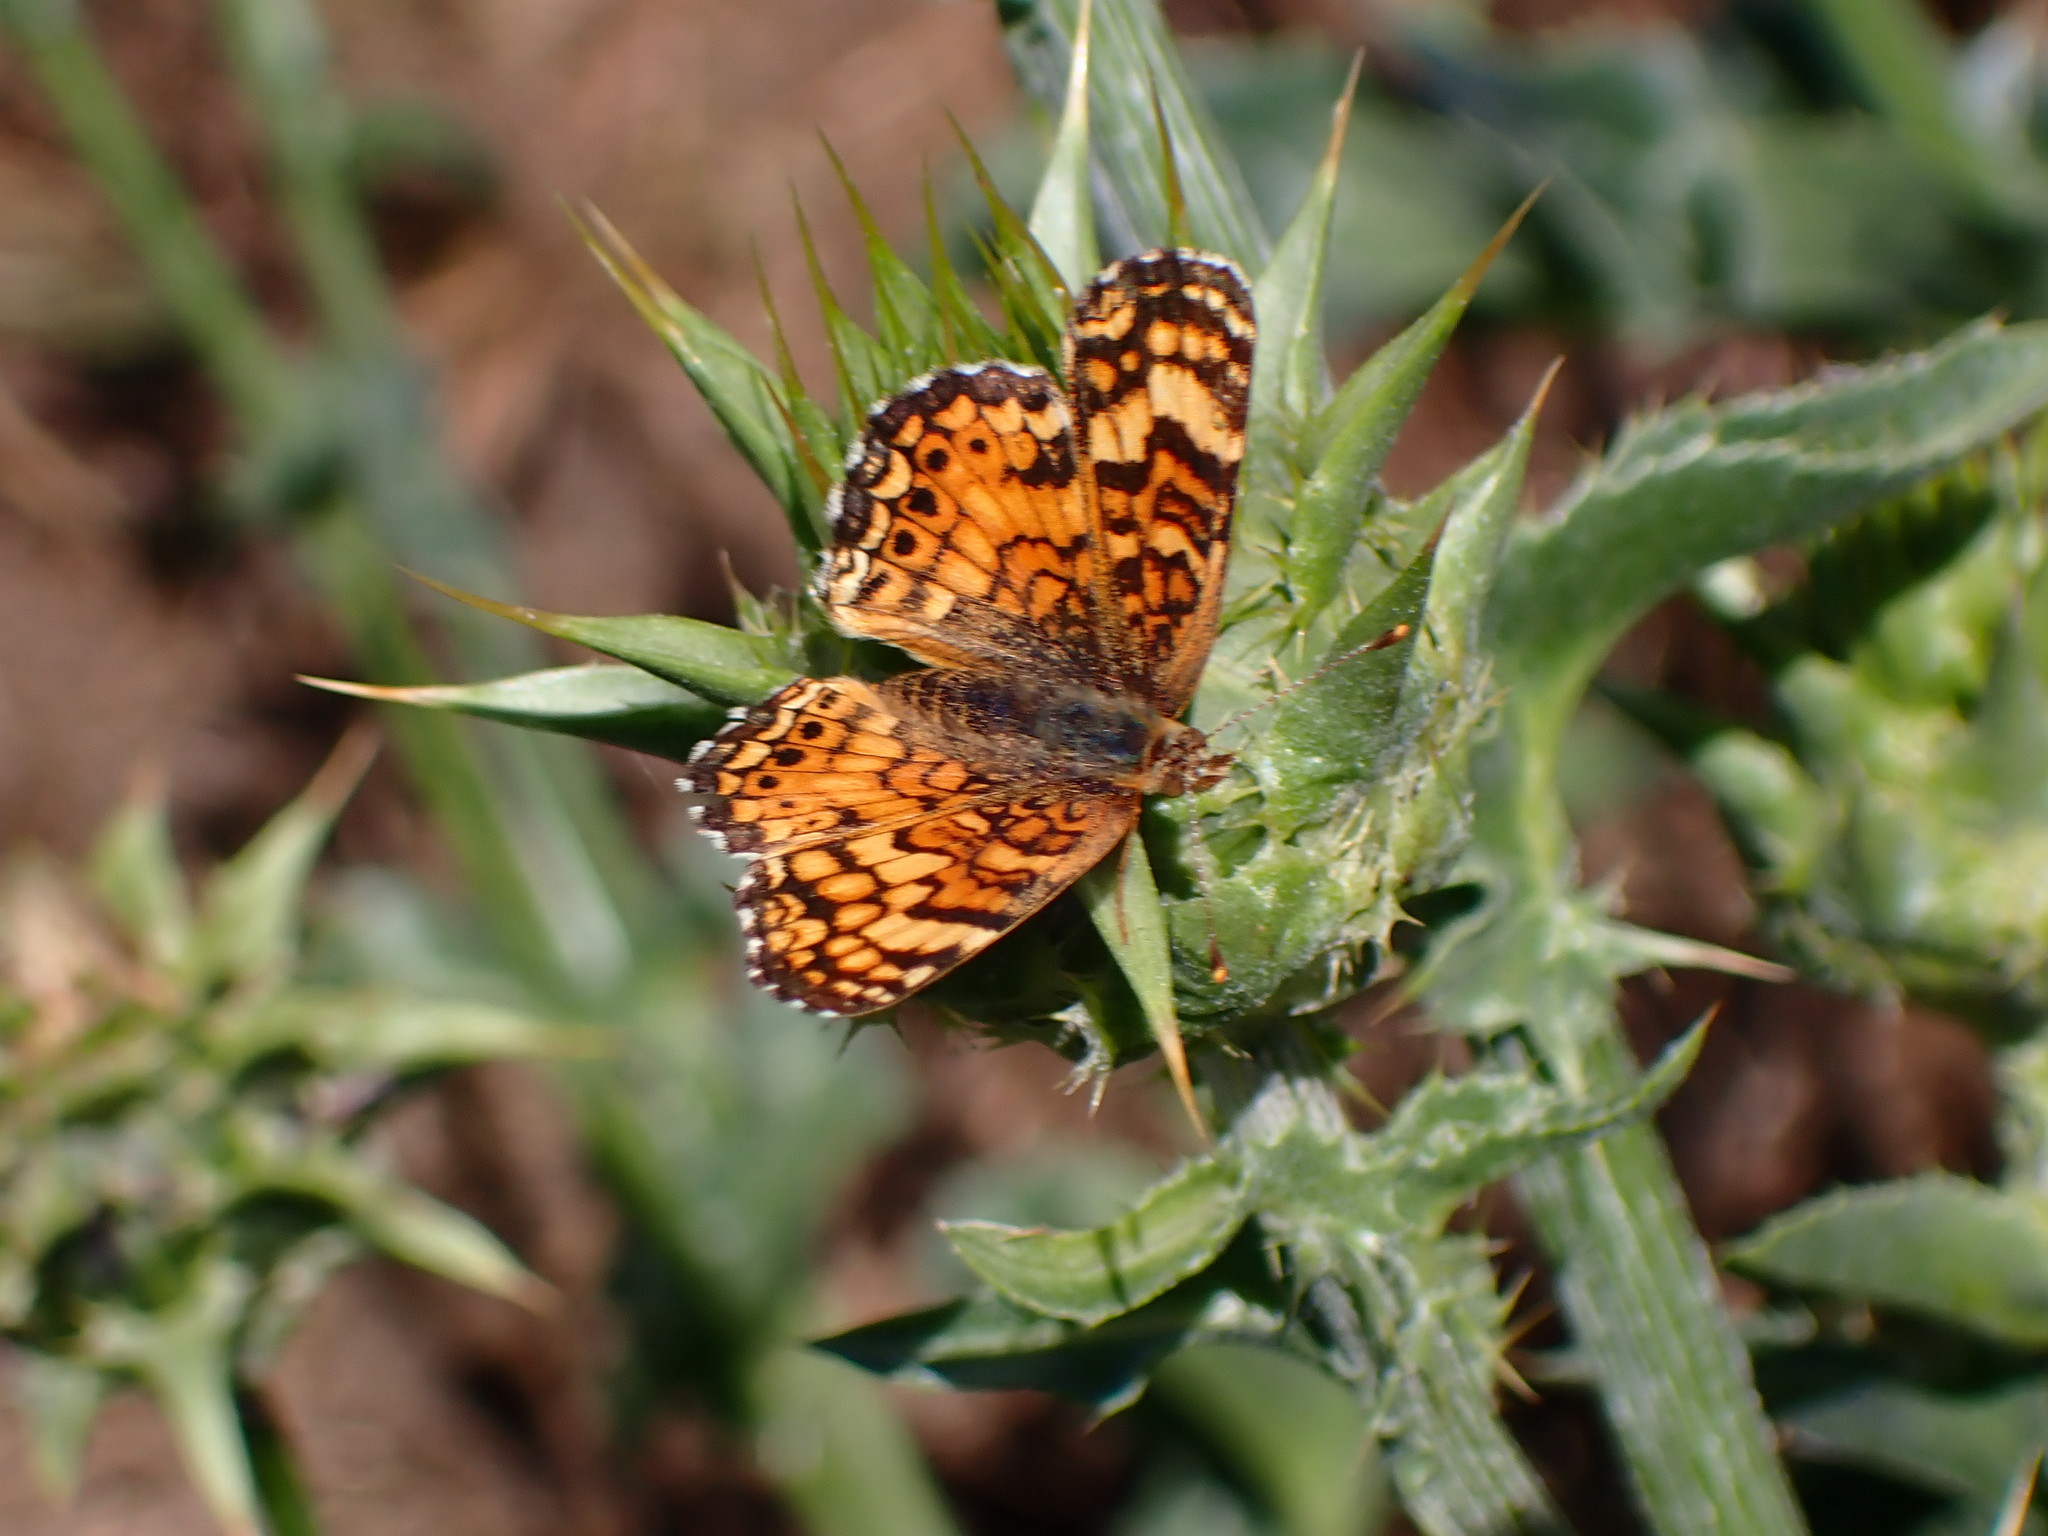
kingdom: Animalia
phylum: Arthropoda
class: Insecta
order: Lepidoptera
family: Nymphalidae
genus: Eresia
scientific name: Eresia aveyrona
